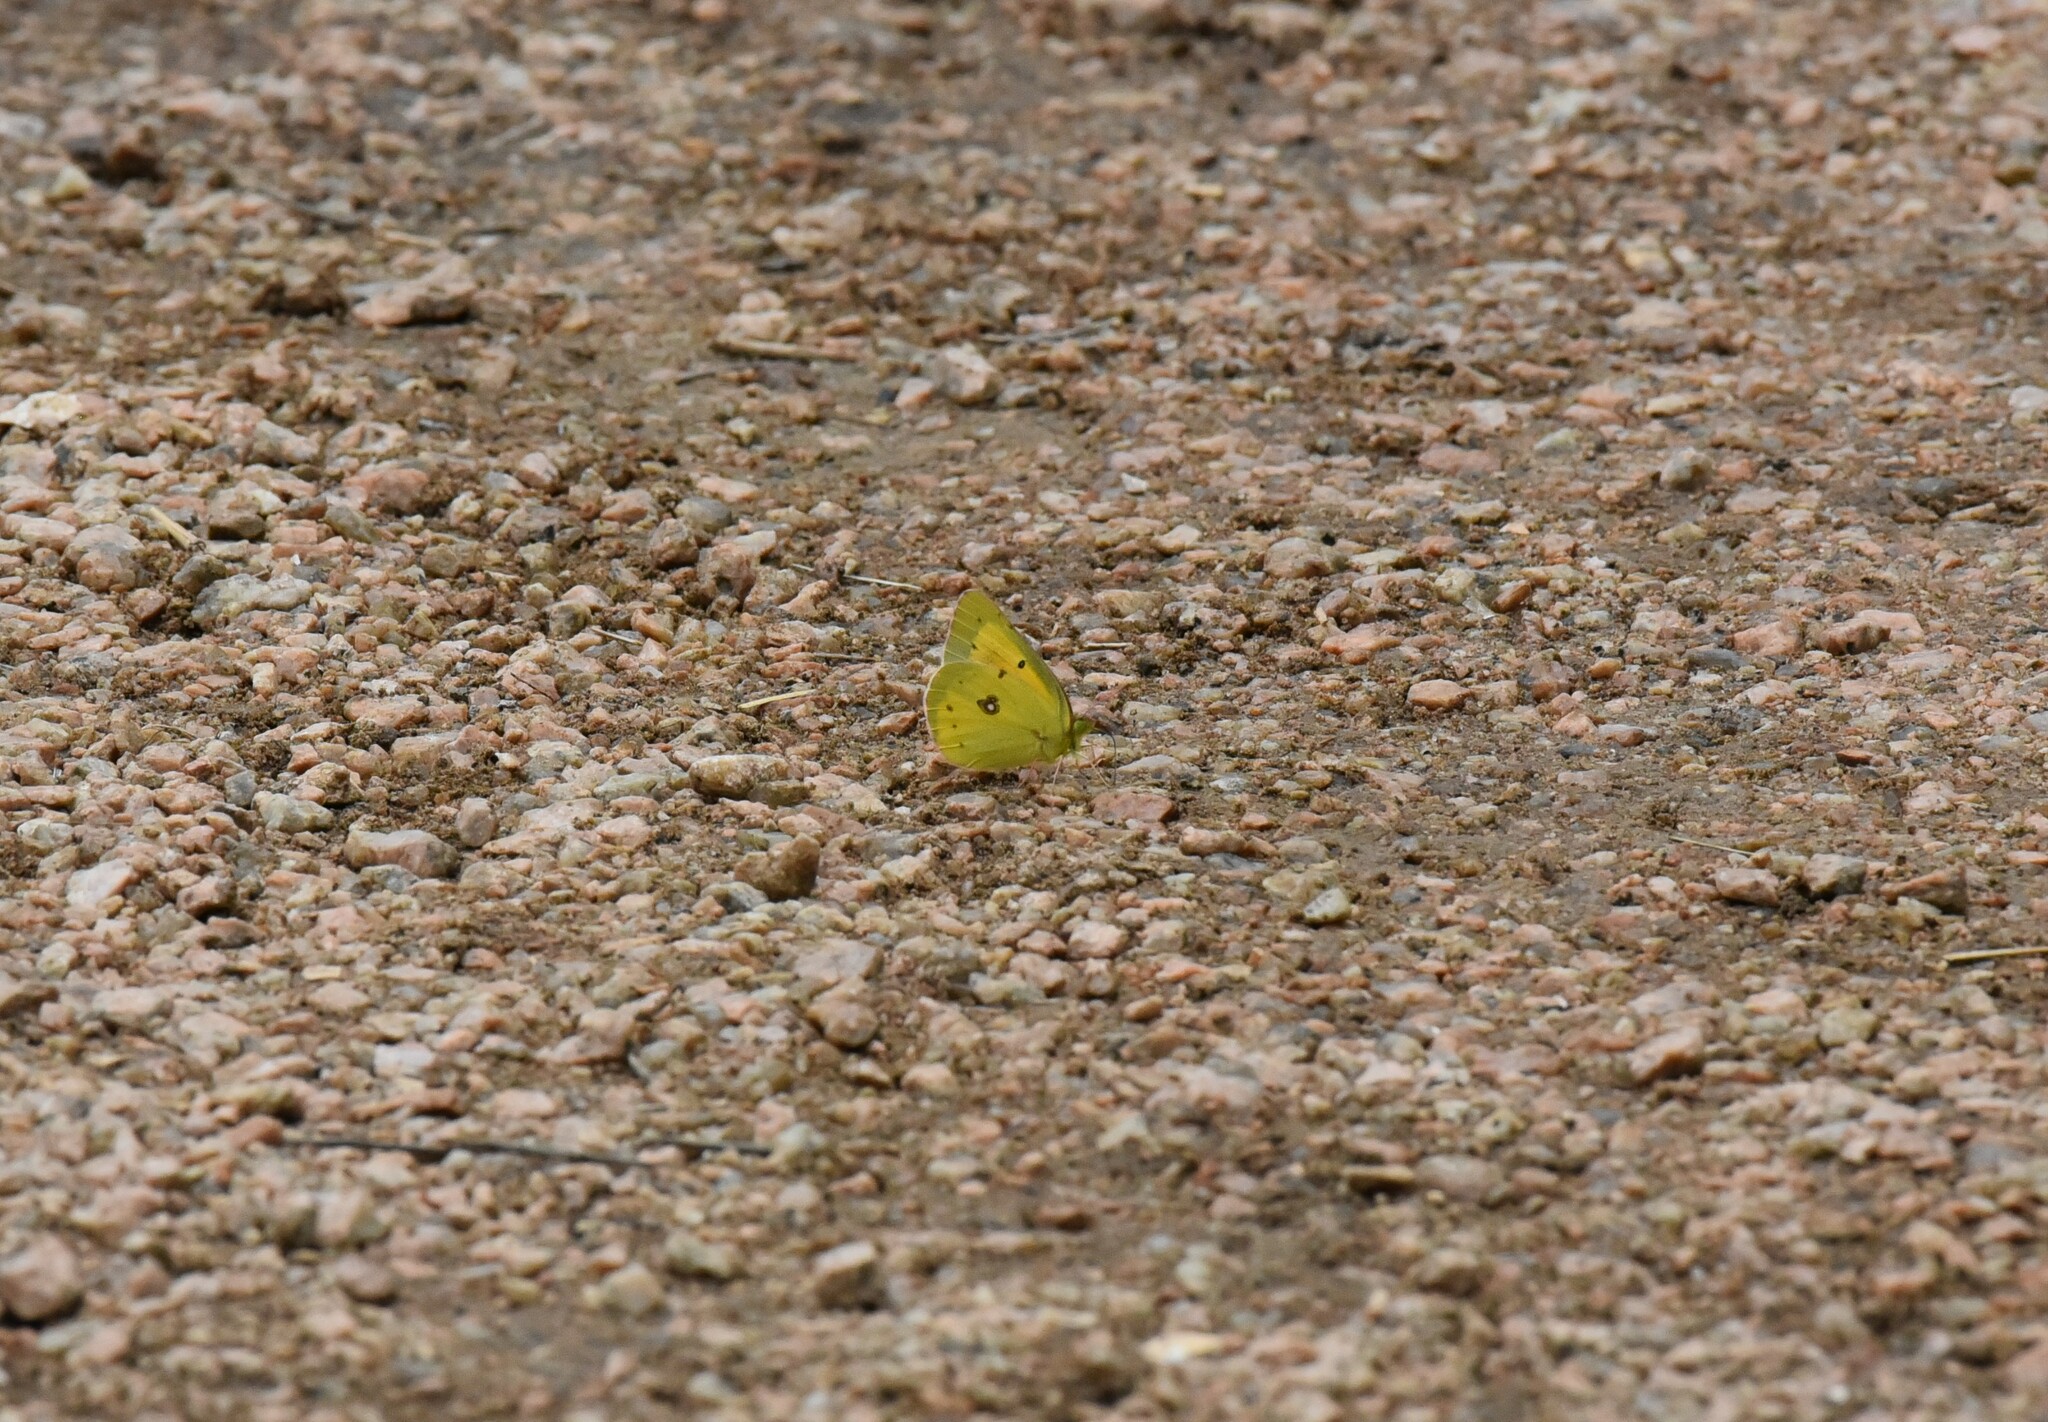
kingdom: Animalia
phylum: Arthropoda
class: Insecta
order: Lepidoptera
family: Pieridae
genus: Colias
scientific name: Colias eurytheme
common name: Alfalfa butterfly
